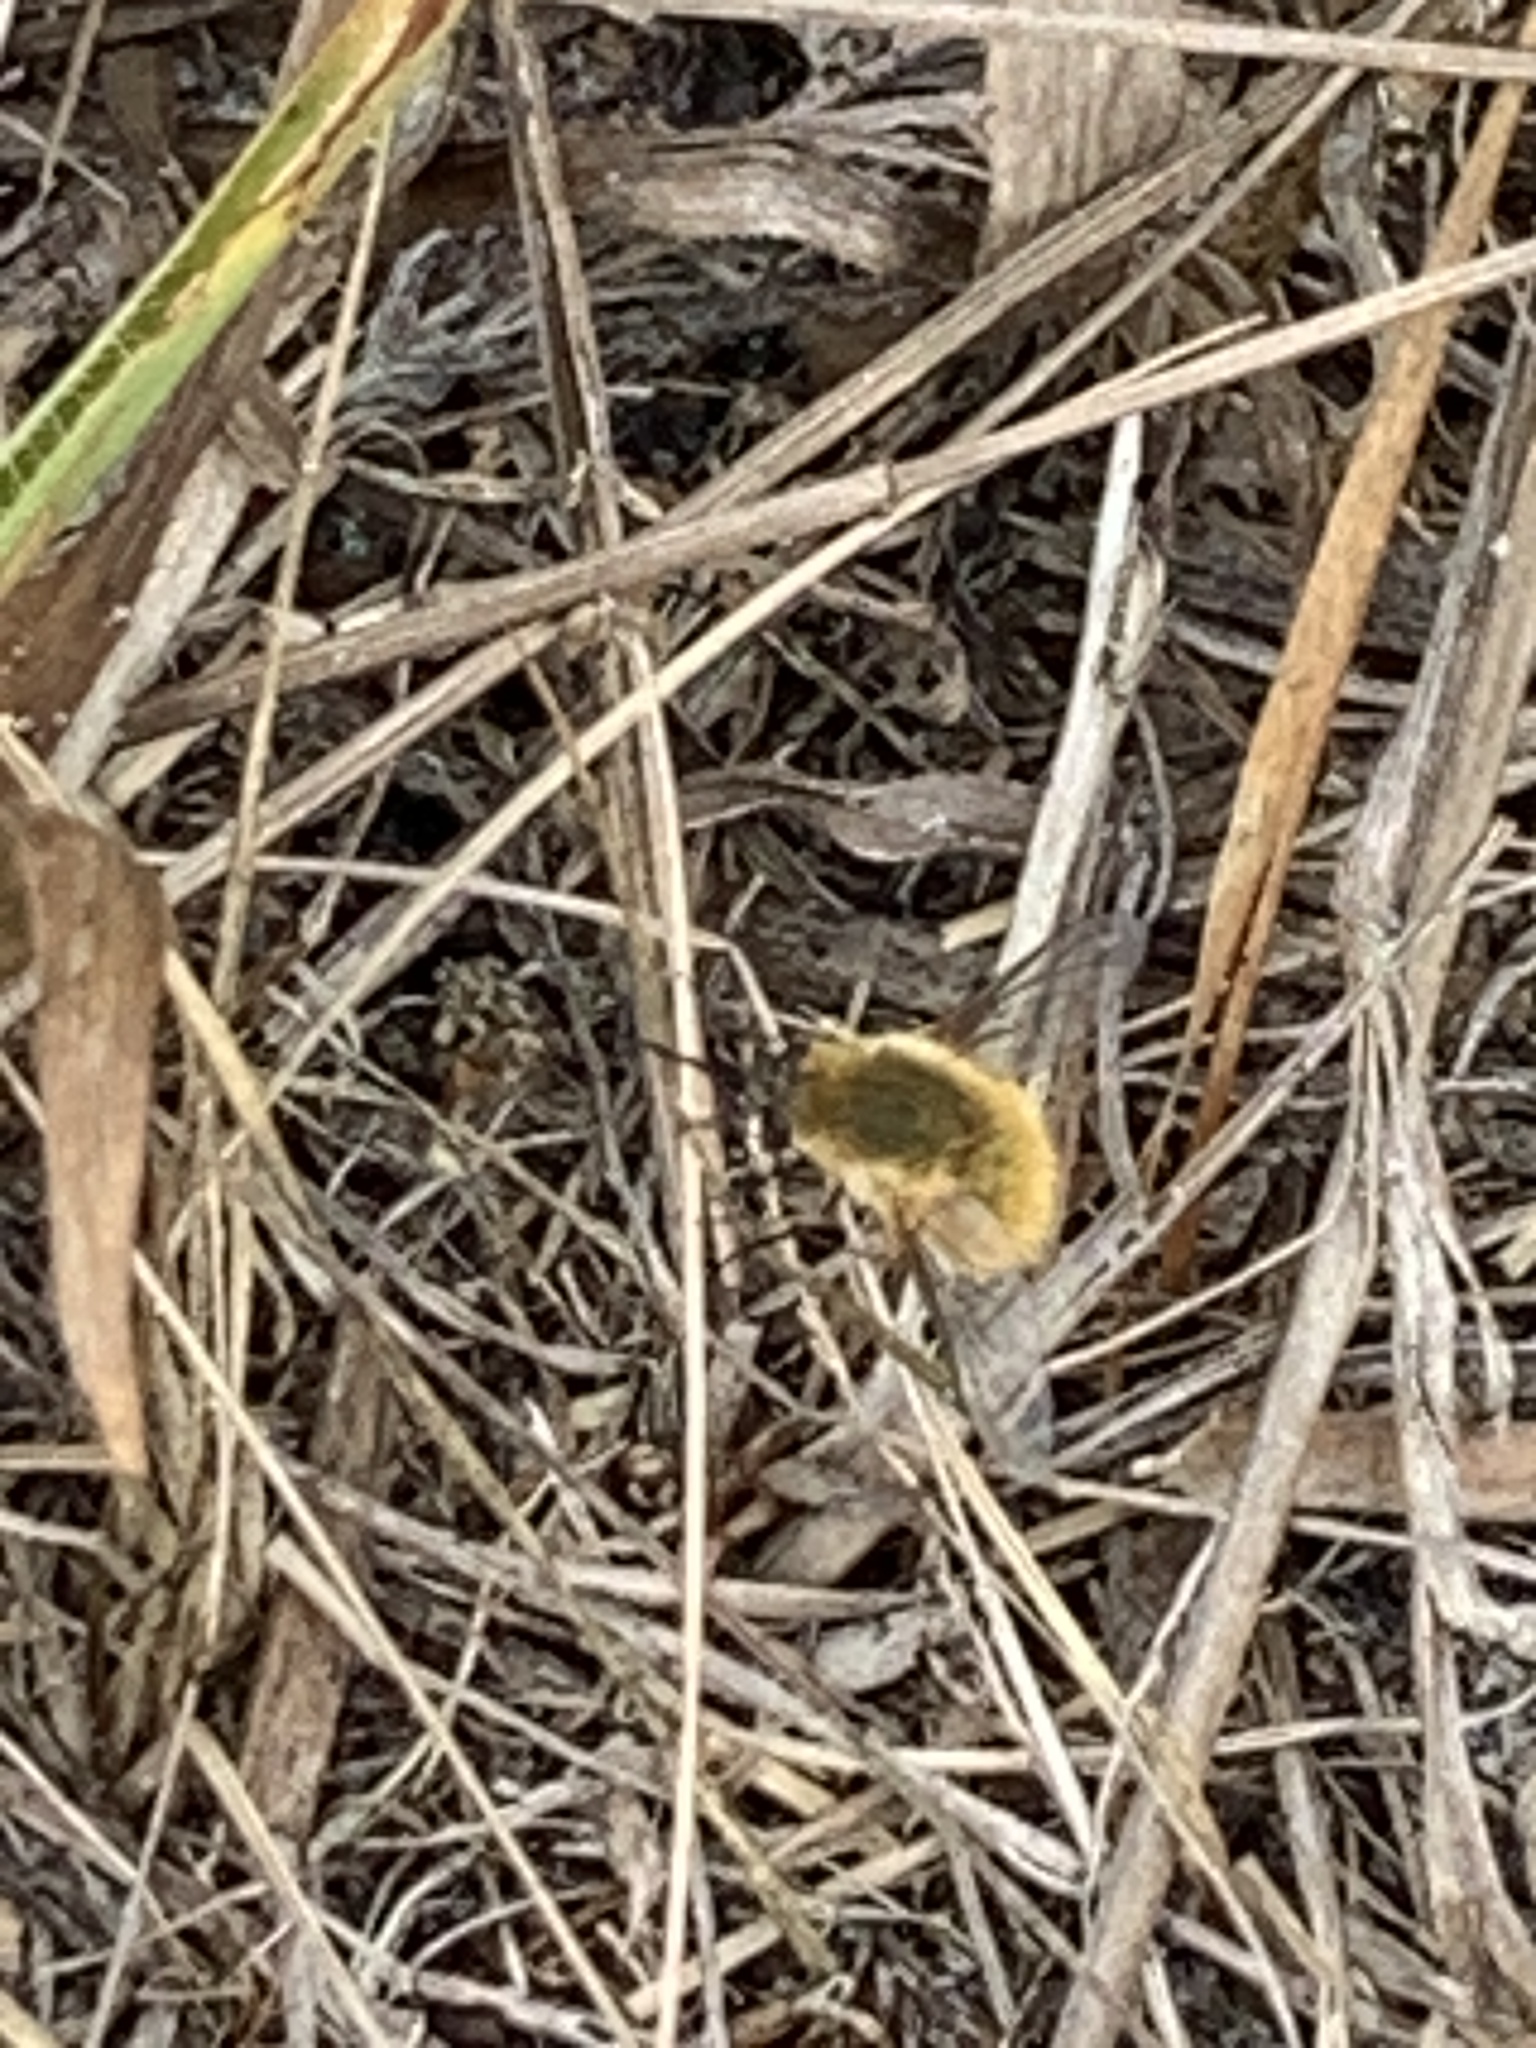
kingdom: Animalia
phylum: Arthropoda
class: Insecta
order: Diptera
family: Bombyliidae
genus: Systoechus
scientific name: Systoechus solitus
